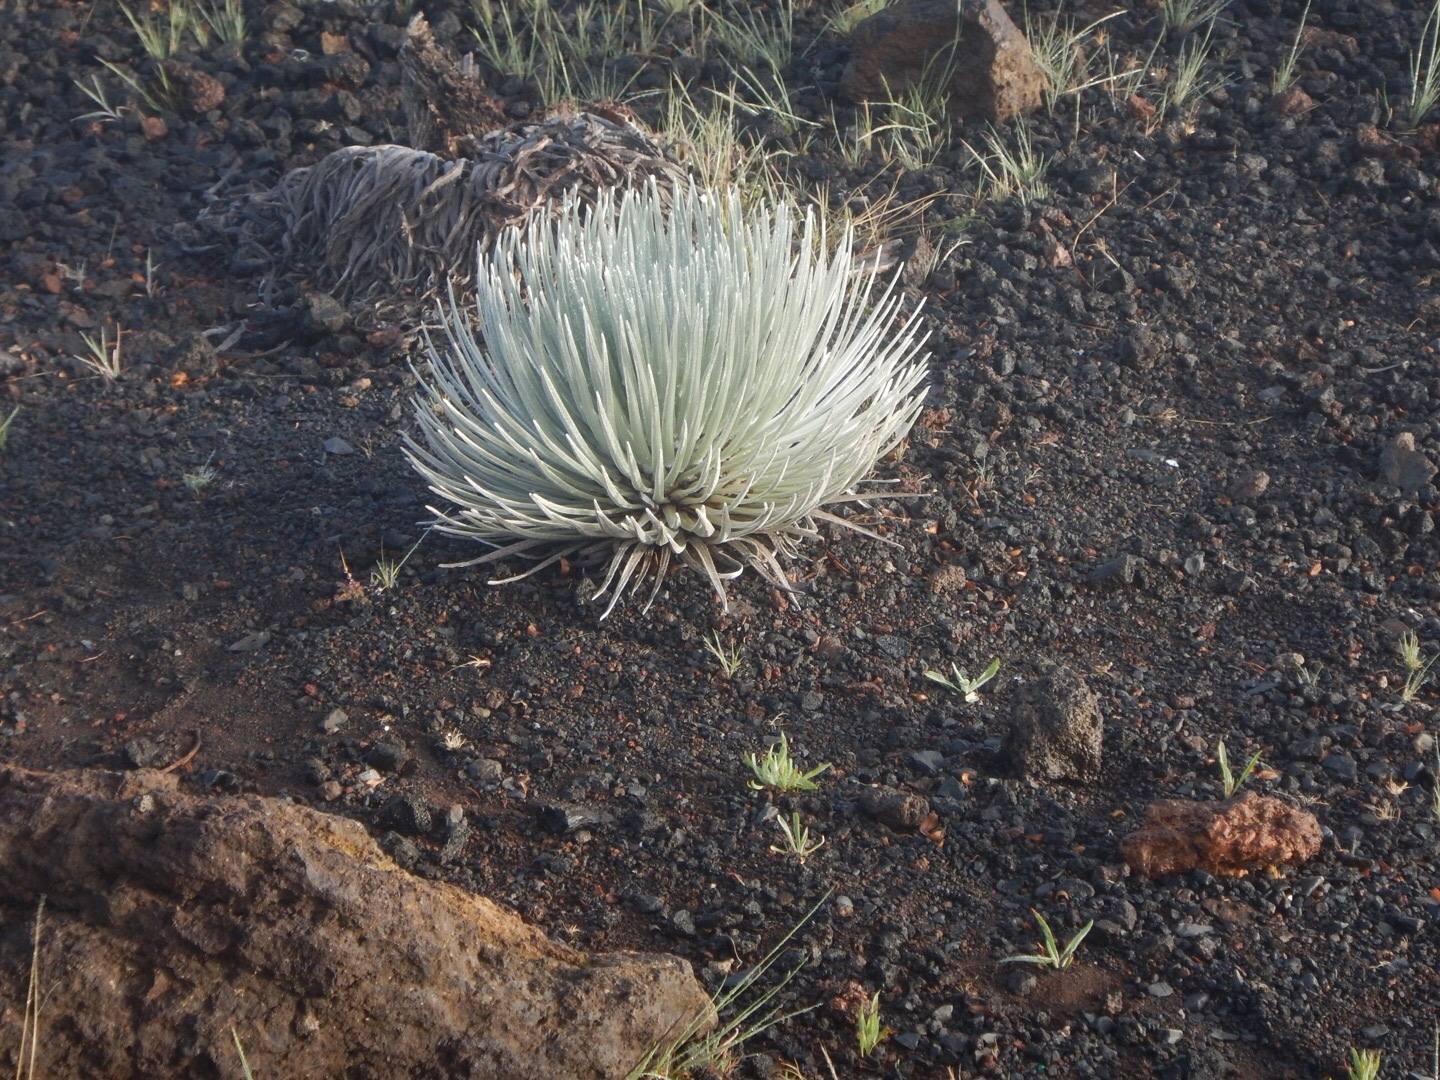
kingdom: Plantae
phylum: Tracheophyta
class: Magnoliopsida
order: Asterales
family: Asteraceae
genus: Argyroxiphium
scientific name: Argyroxiphium sandwicense
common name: Silversword
